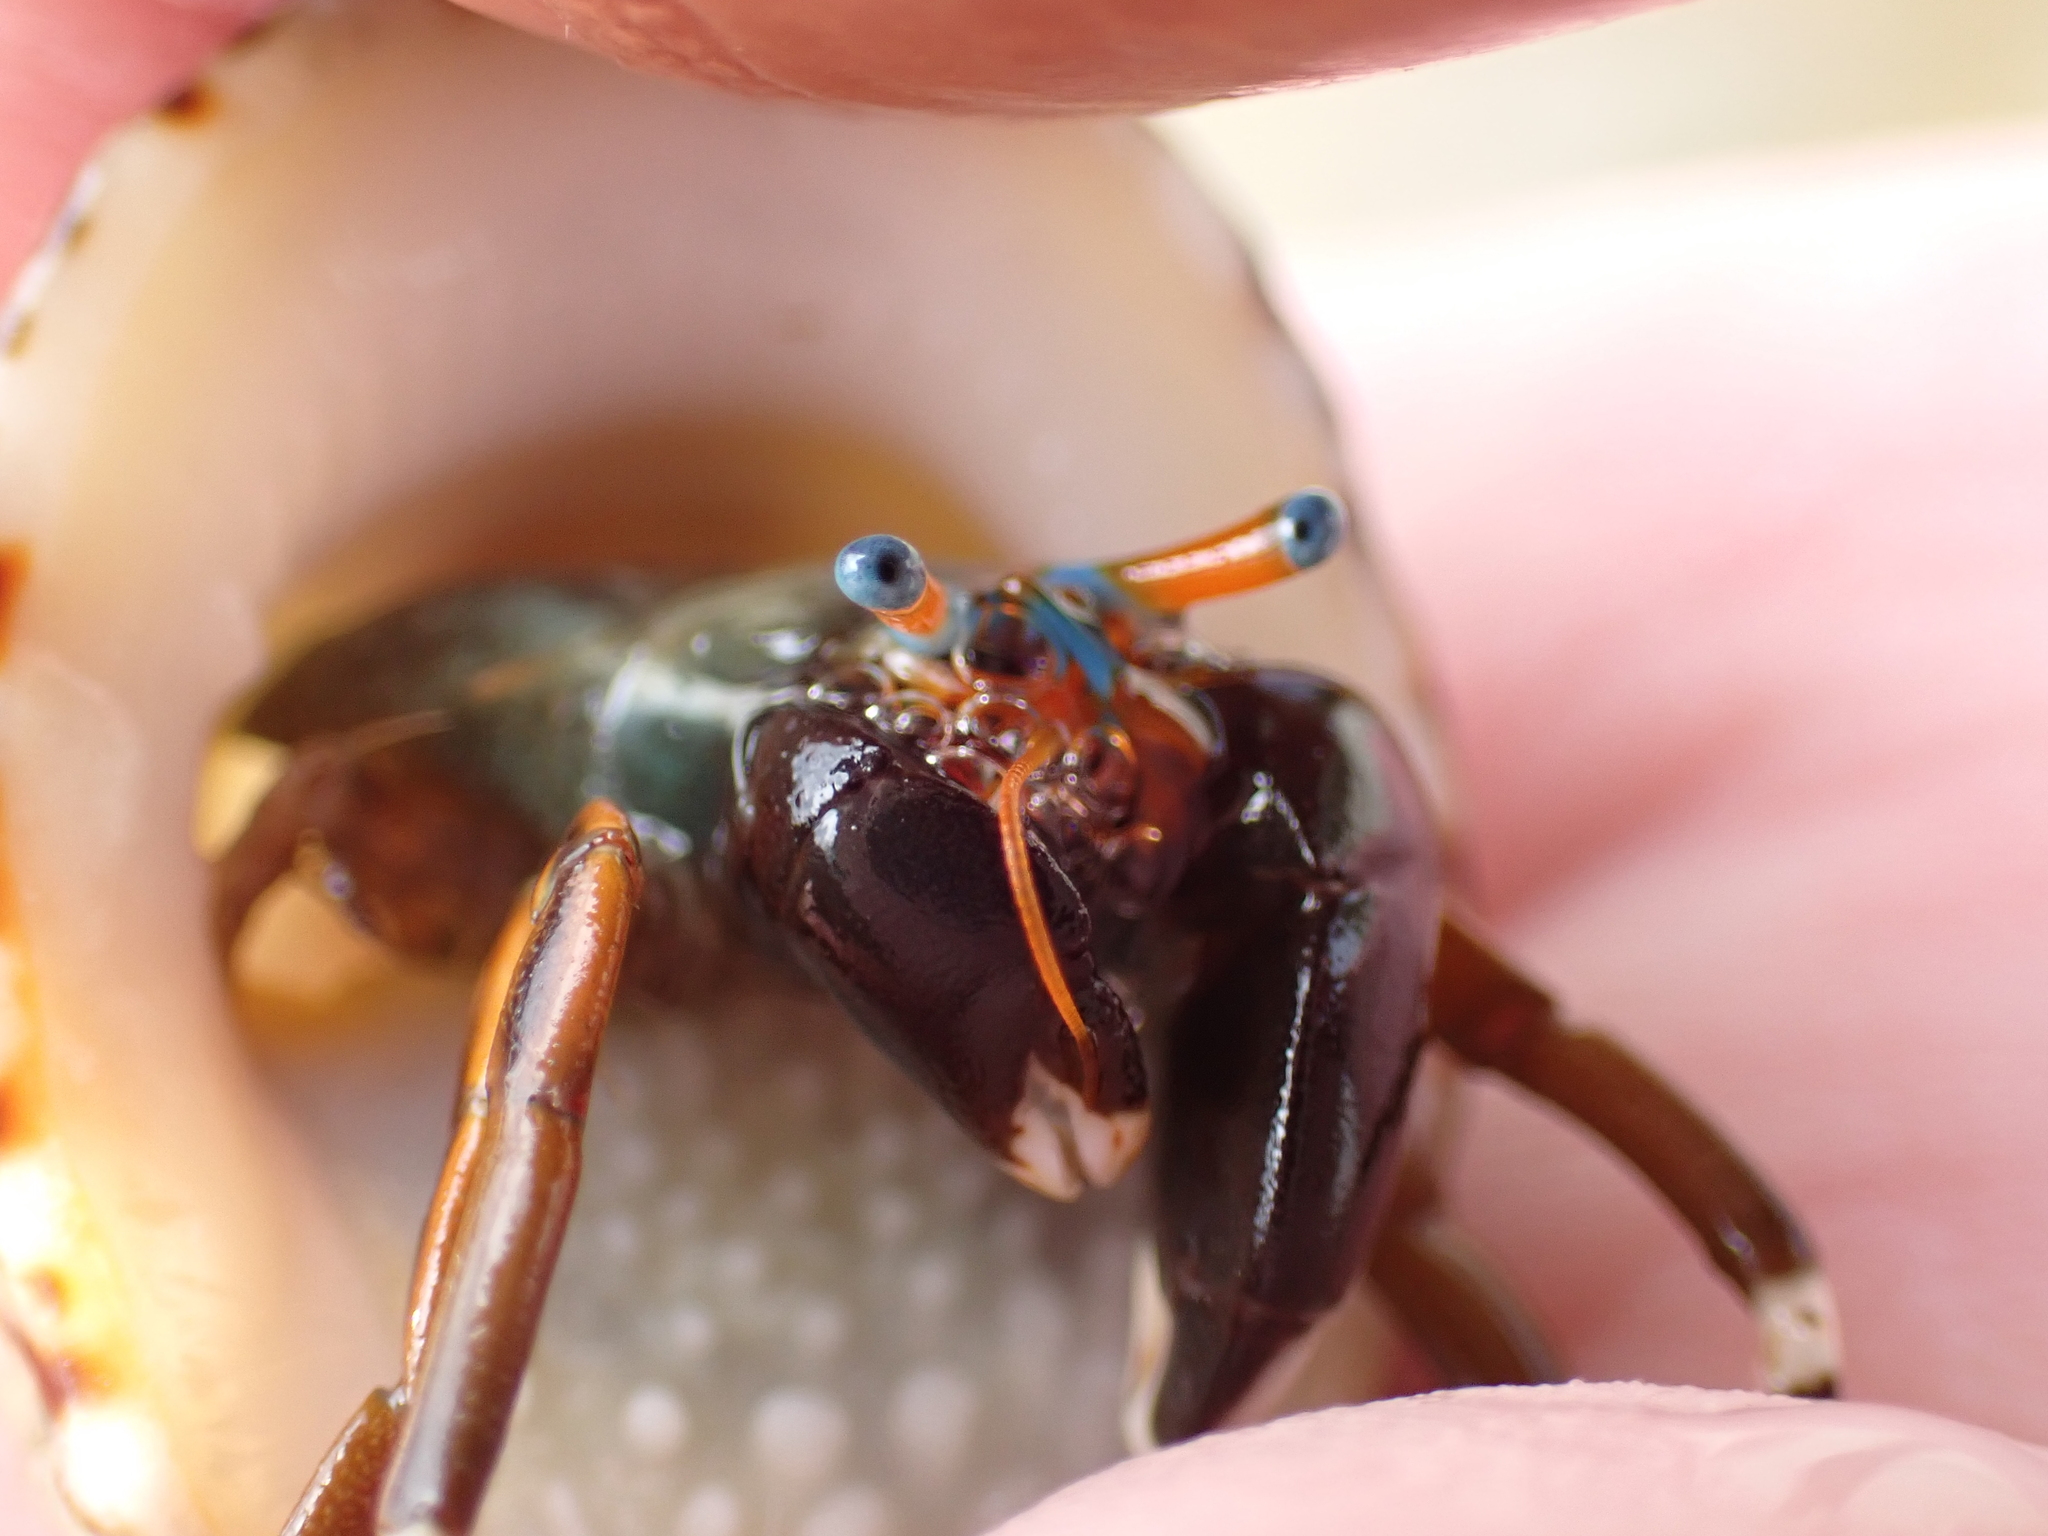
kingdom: Animalia
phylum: Arthropoda
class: Malacostraca
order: Decapoda
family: Diogenidae
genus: Calcinus
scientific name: Calcinus laevimanus
